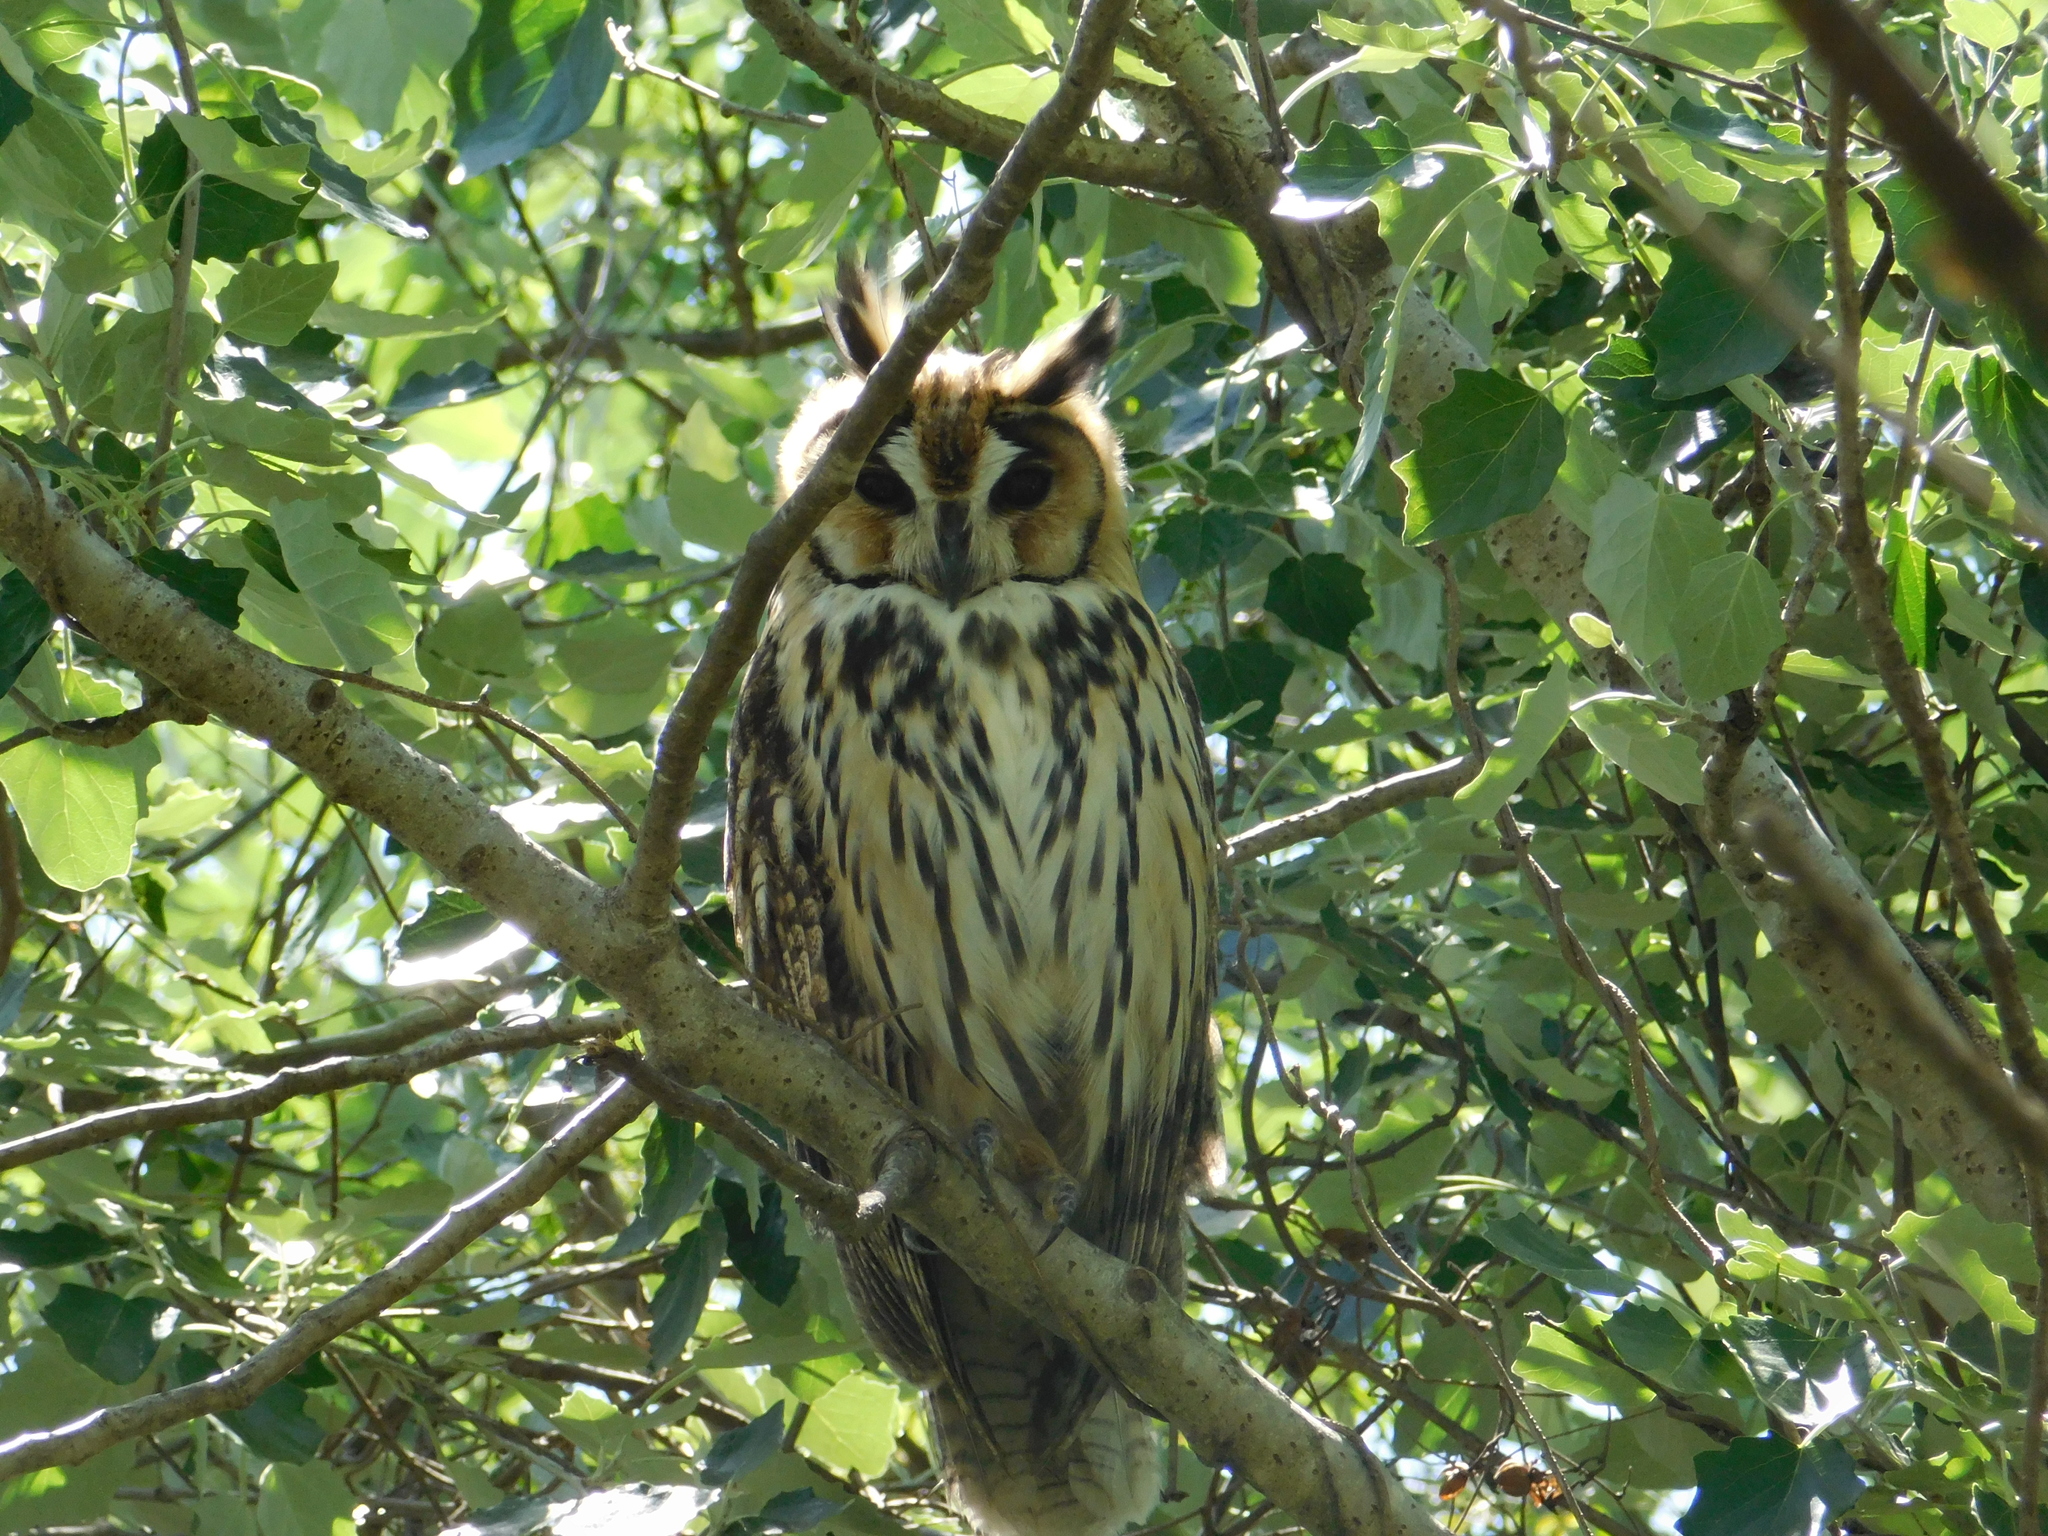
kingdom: Animalia
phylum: Chordata
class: Aves
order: Strigiformes
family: Strigidae
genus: Pseudoscops
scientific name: Pseudoscops clamator
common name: Striped owl
